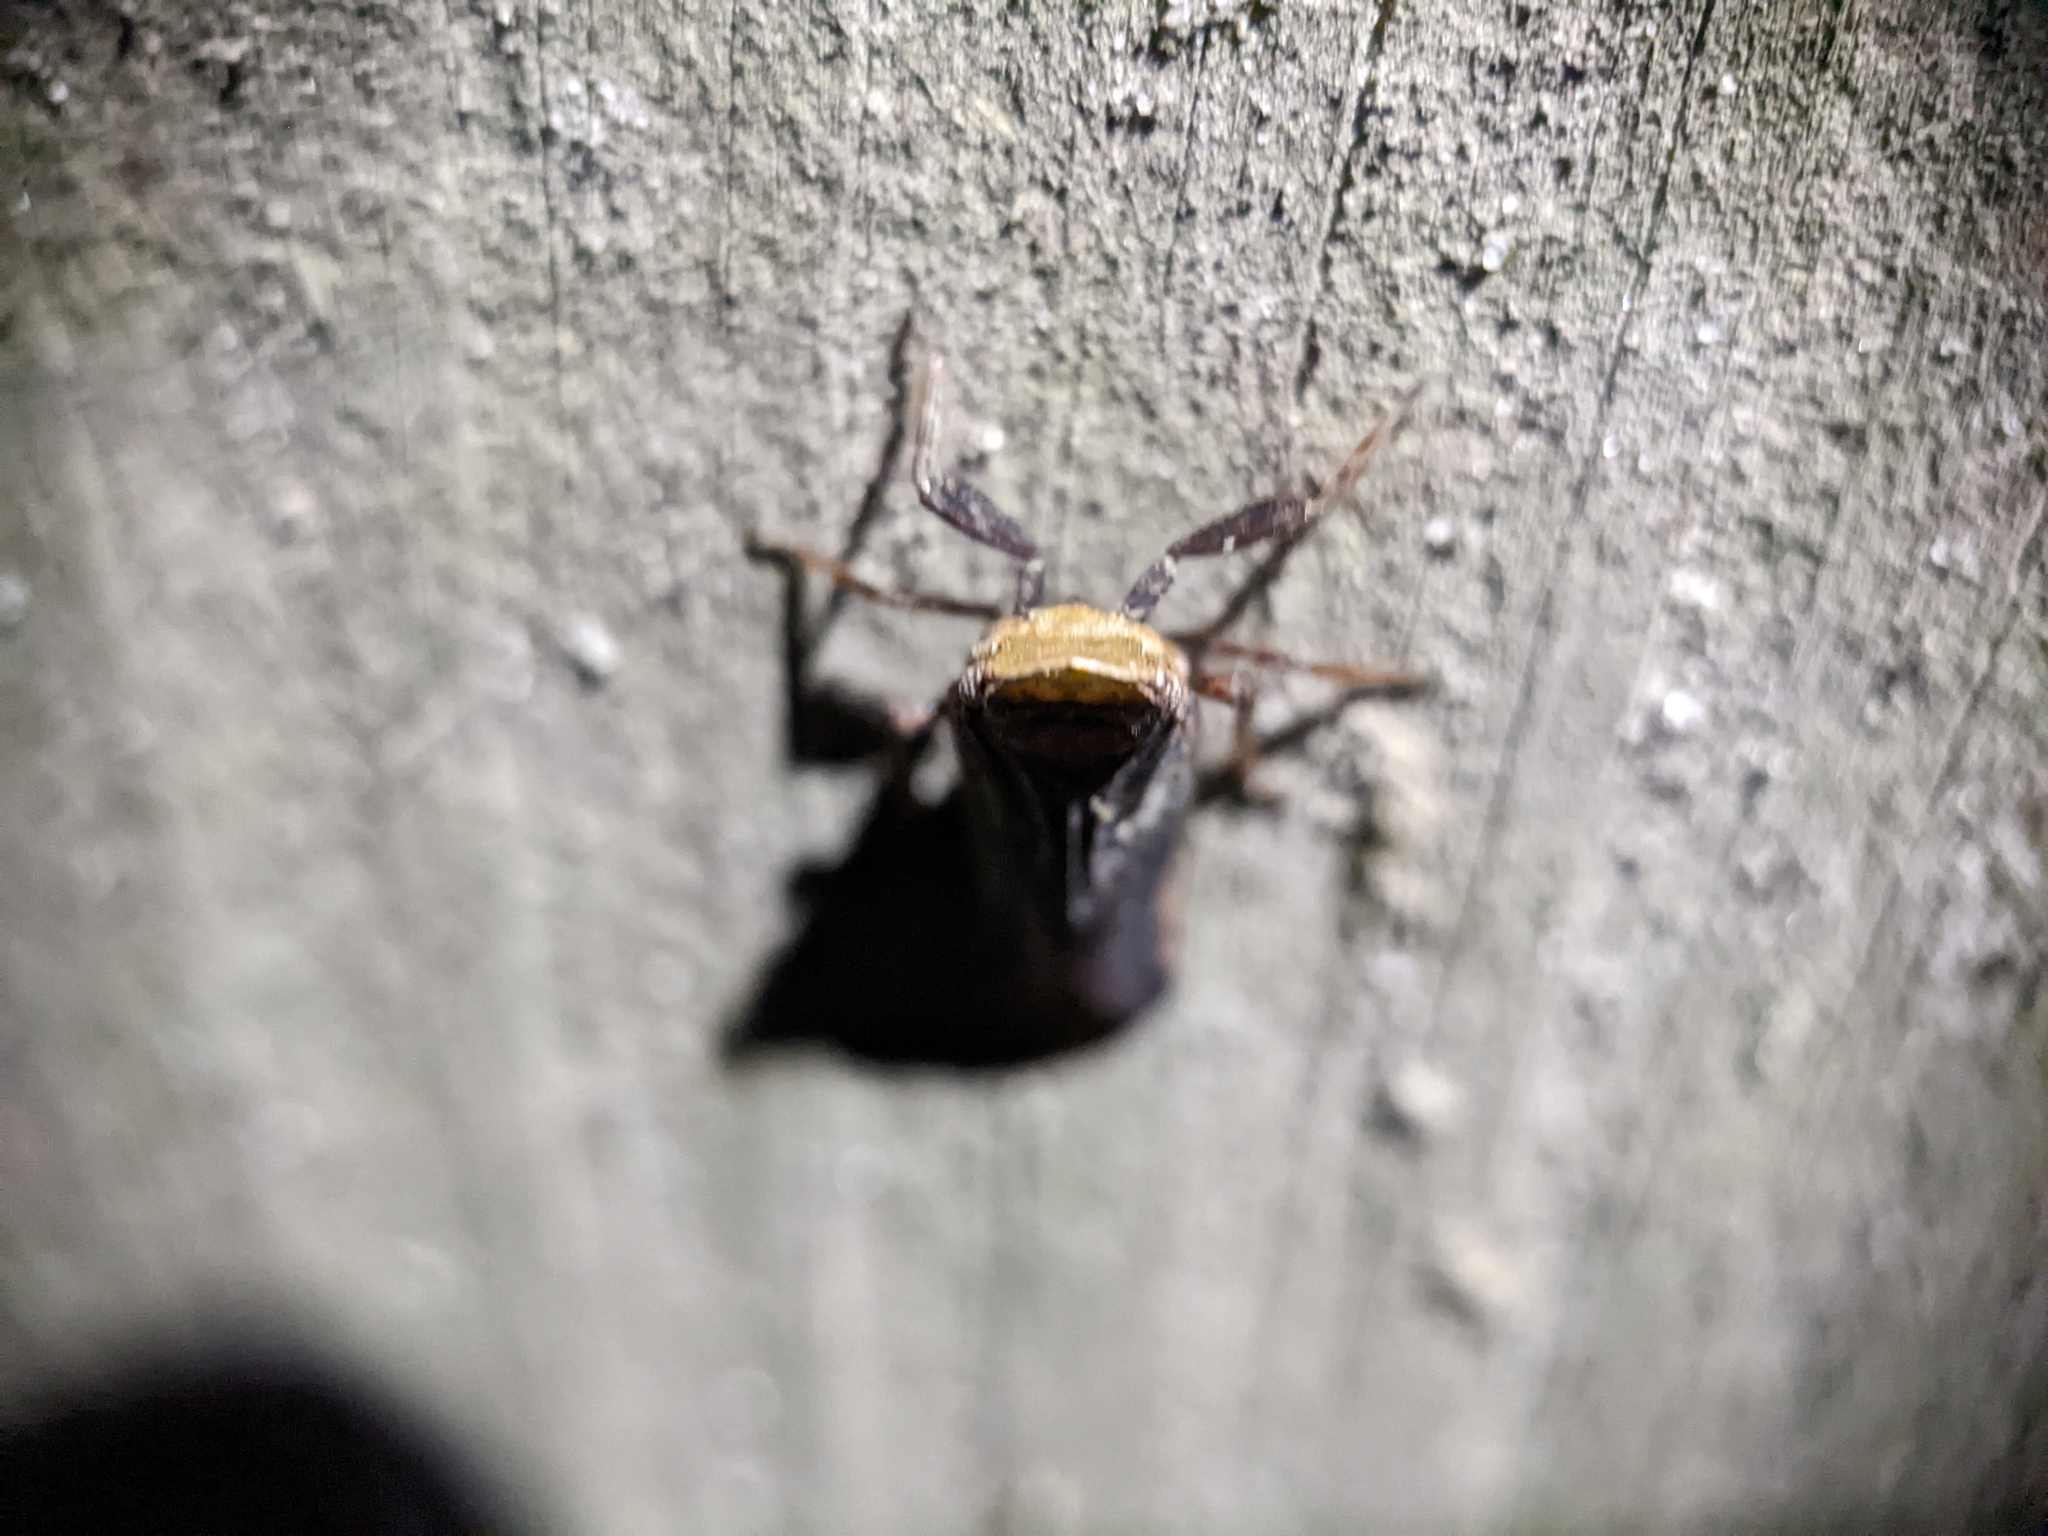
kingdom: Animalia
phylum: Arthropoda
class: Insecta
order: Hemiptera
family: Fulgoridae
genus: Cyrpoptus
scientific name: Cyrpoptus belfragei
